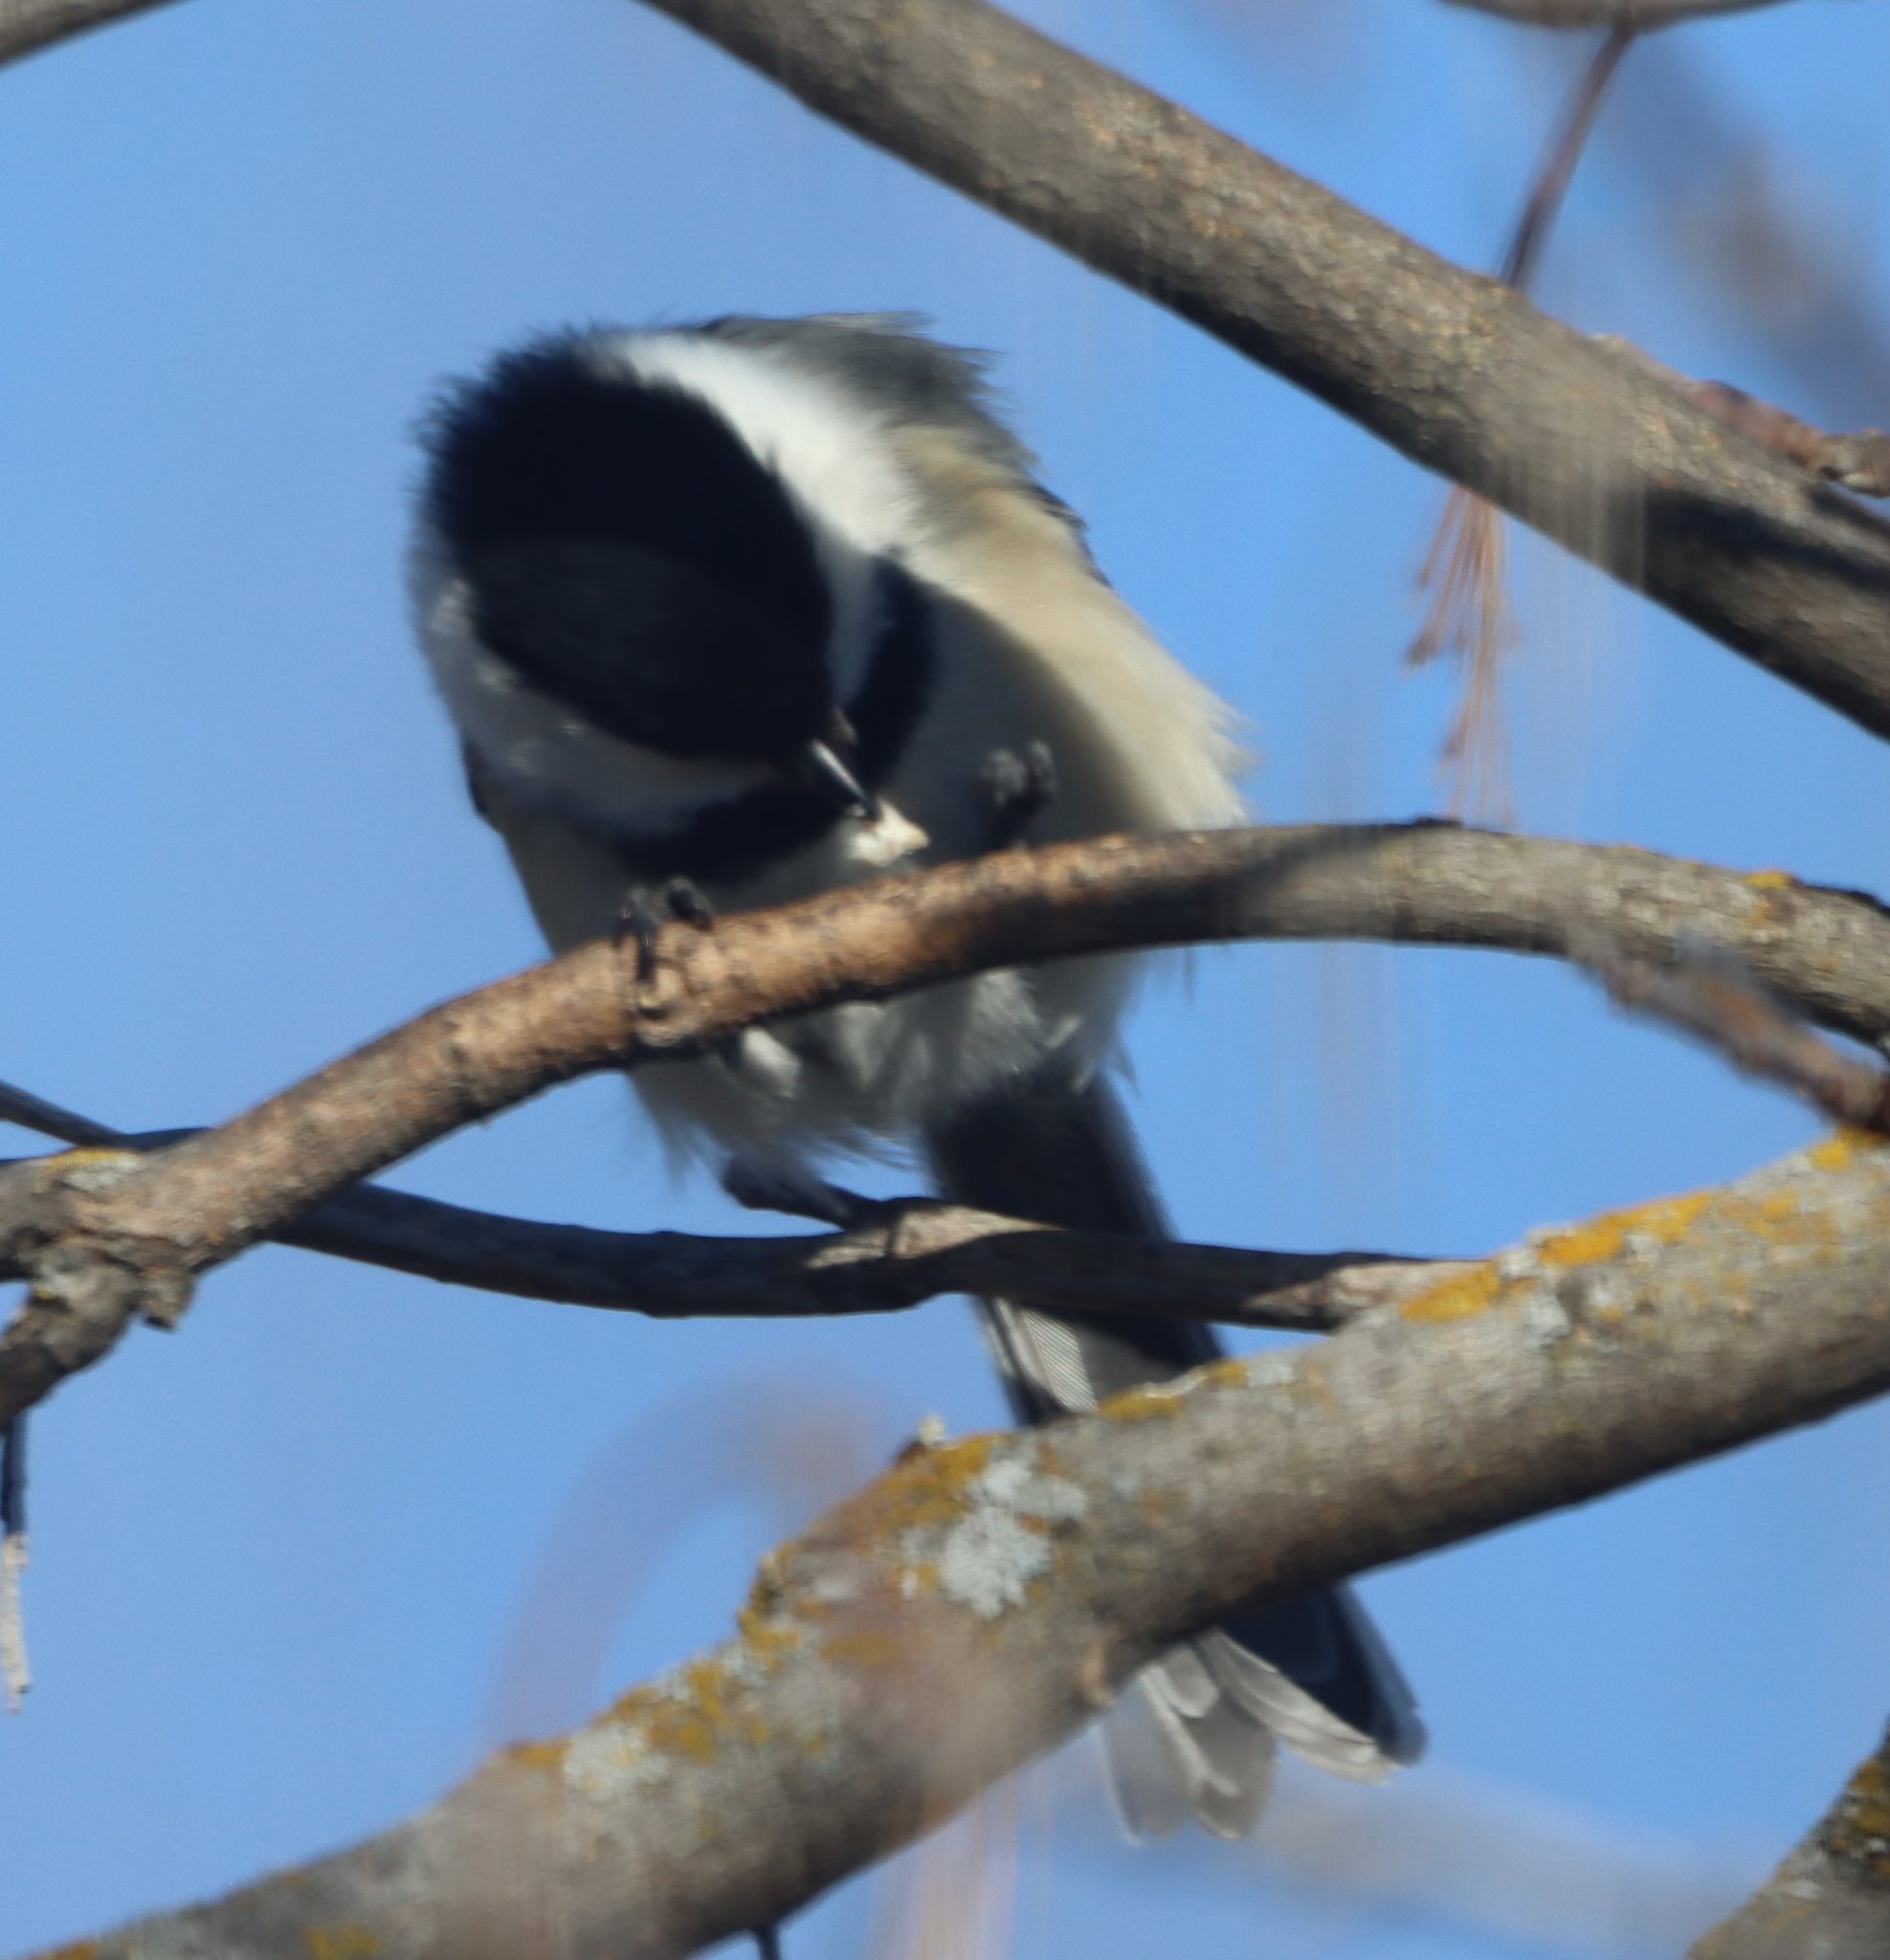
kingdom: Animalia
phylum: Chordata
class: Aves
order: Passeriformes
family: Paridae
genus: Poecile
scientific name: Poecile atricapillus
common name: Black-capped chickadee
